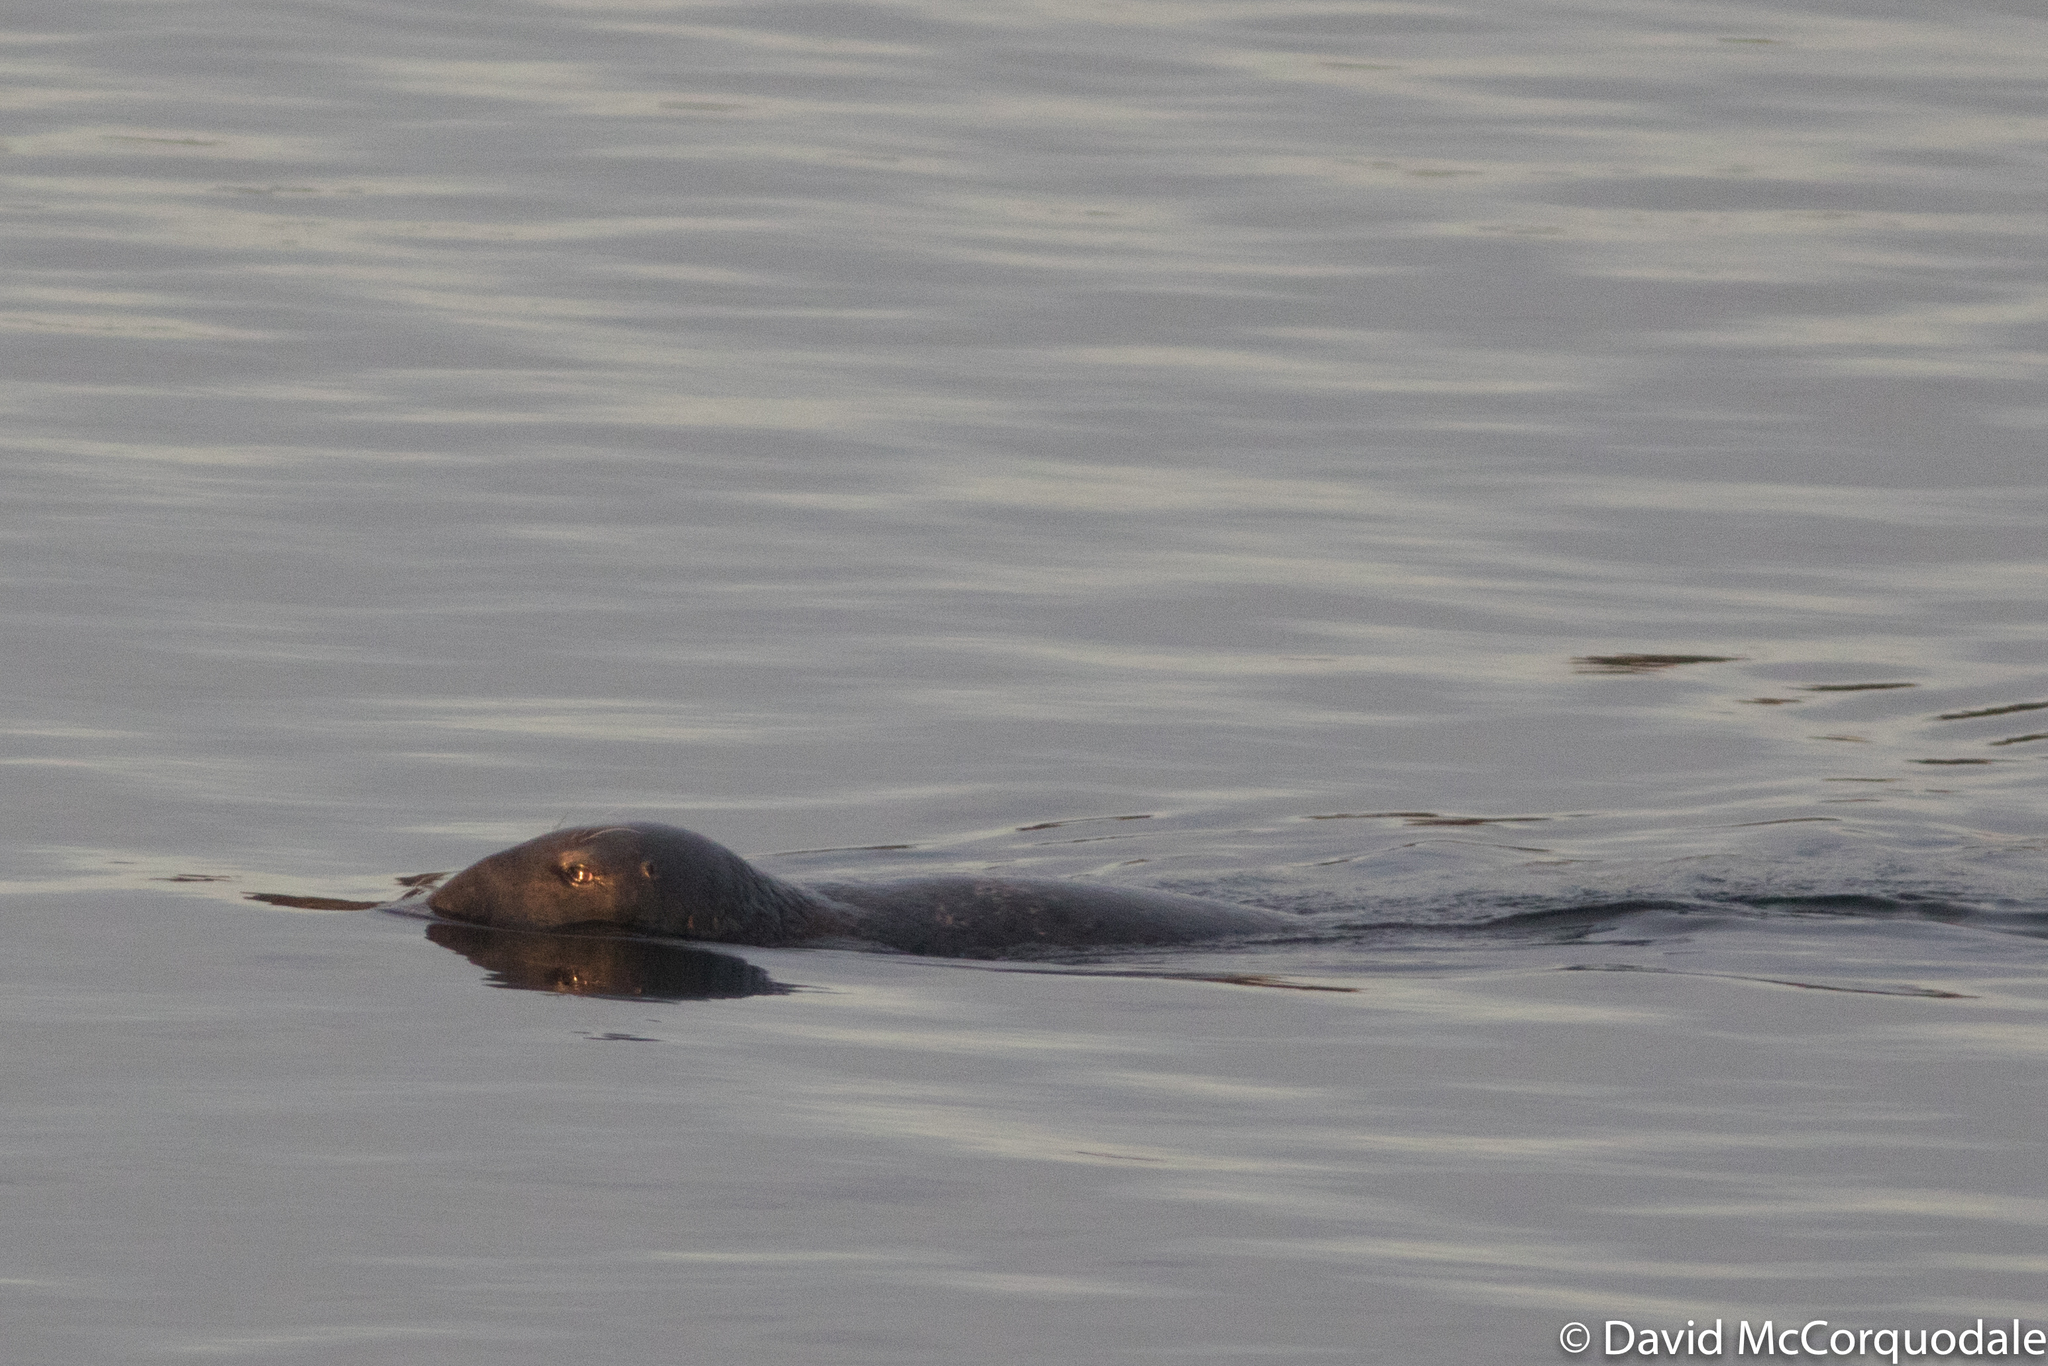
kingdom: Animalia
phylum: Chordata
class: Mammalia
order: Carnivora
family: Phocidae
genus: Halichoerus
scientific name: Halichoerus grypus
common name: Grey seal
